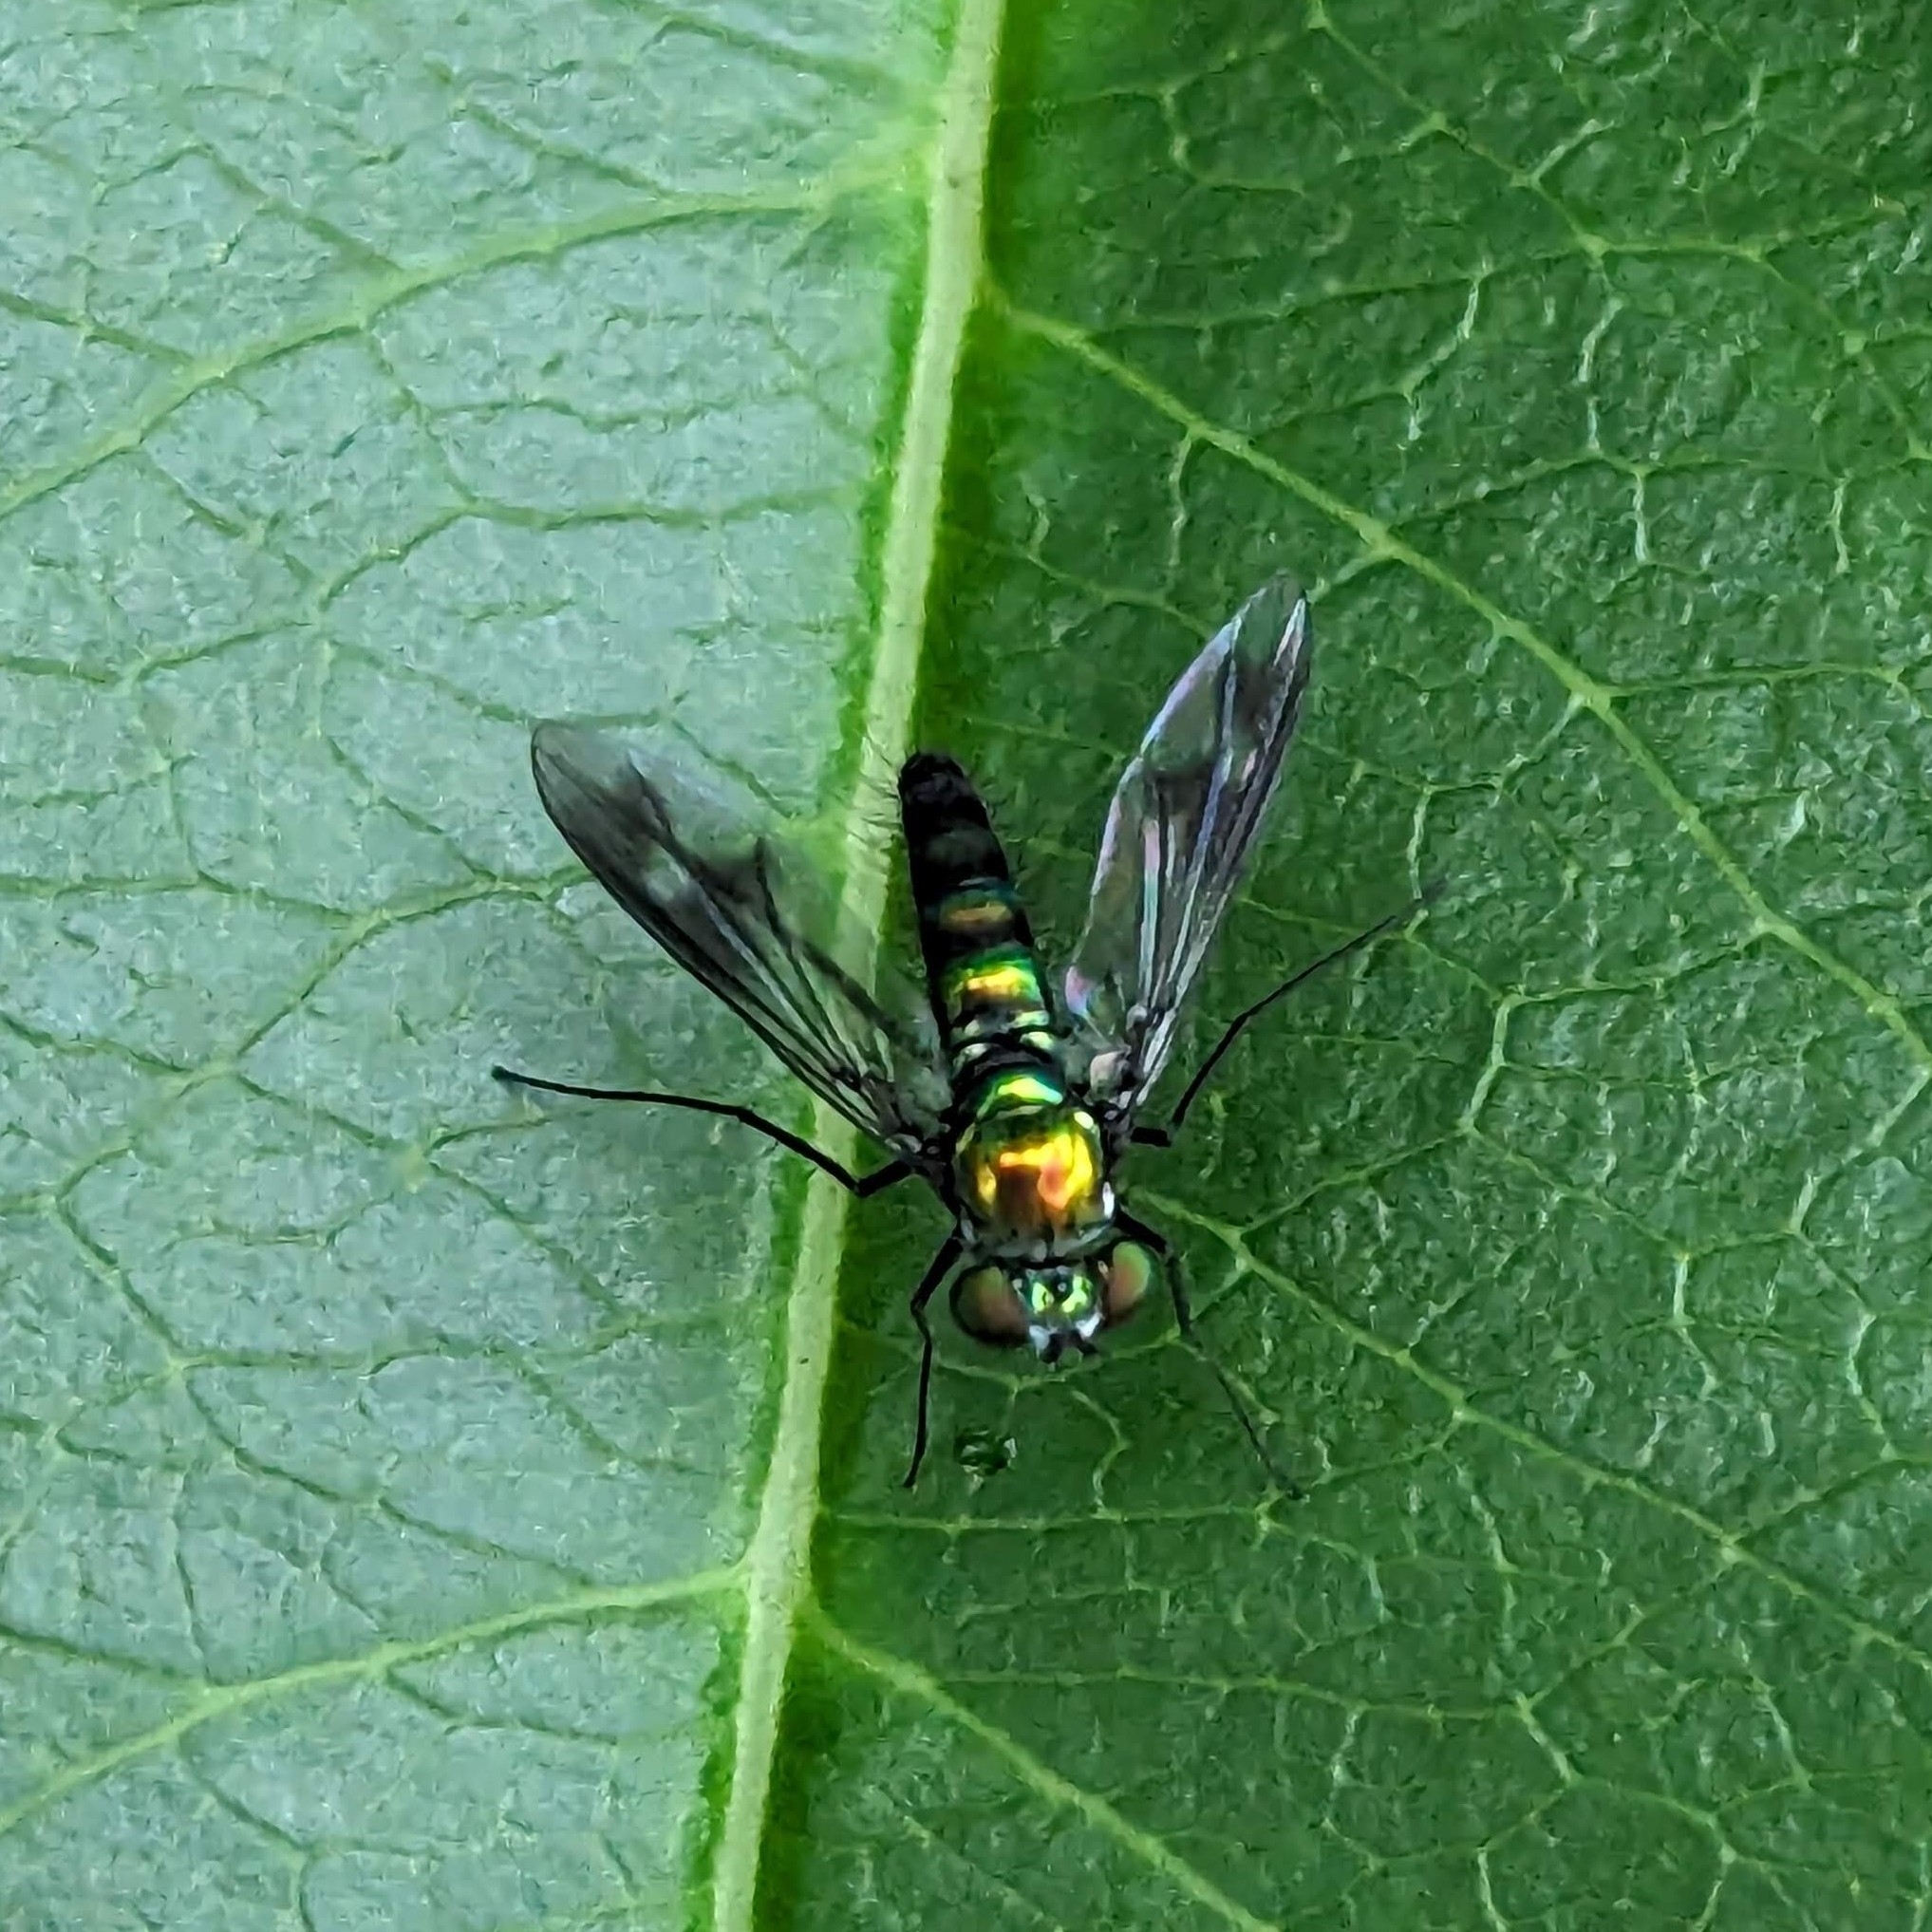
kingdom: Animalia
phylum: Arthropoda
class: Insecta
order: Diptera
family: Dolichopodidae
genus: Condylostylus
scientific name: Condylostylus patibulatus
